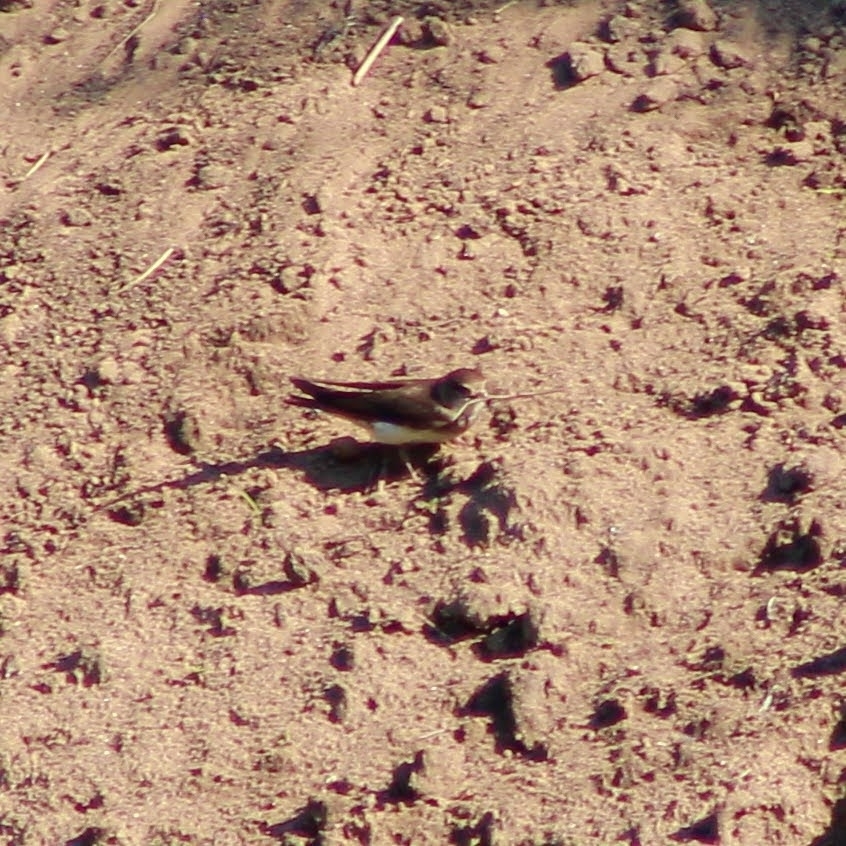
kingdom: Animalia
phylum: Chordata
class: Aves
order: Passeriformes
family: Hirundinidae
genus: Riparia
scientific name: Riparia riparia
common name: Sand martin
